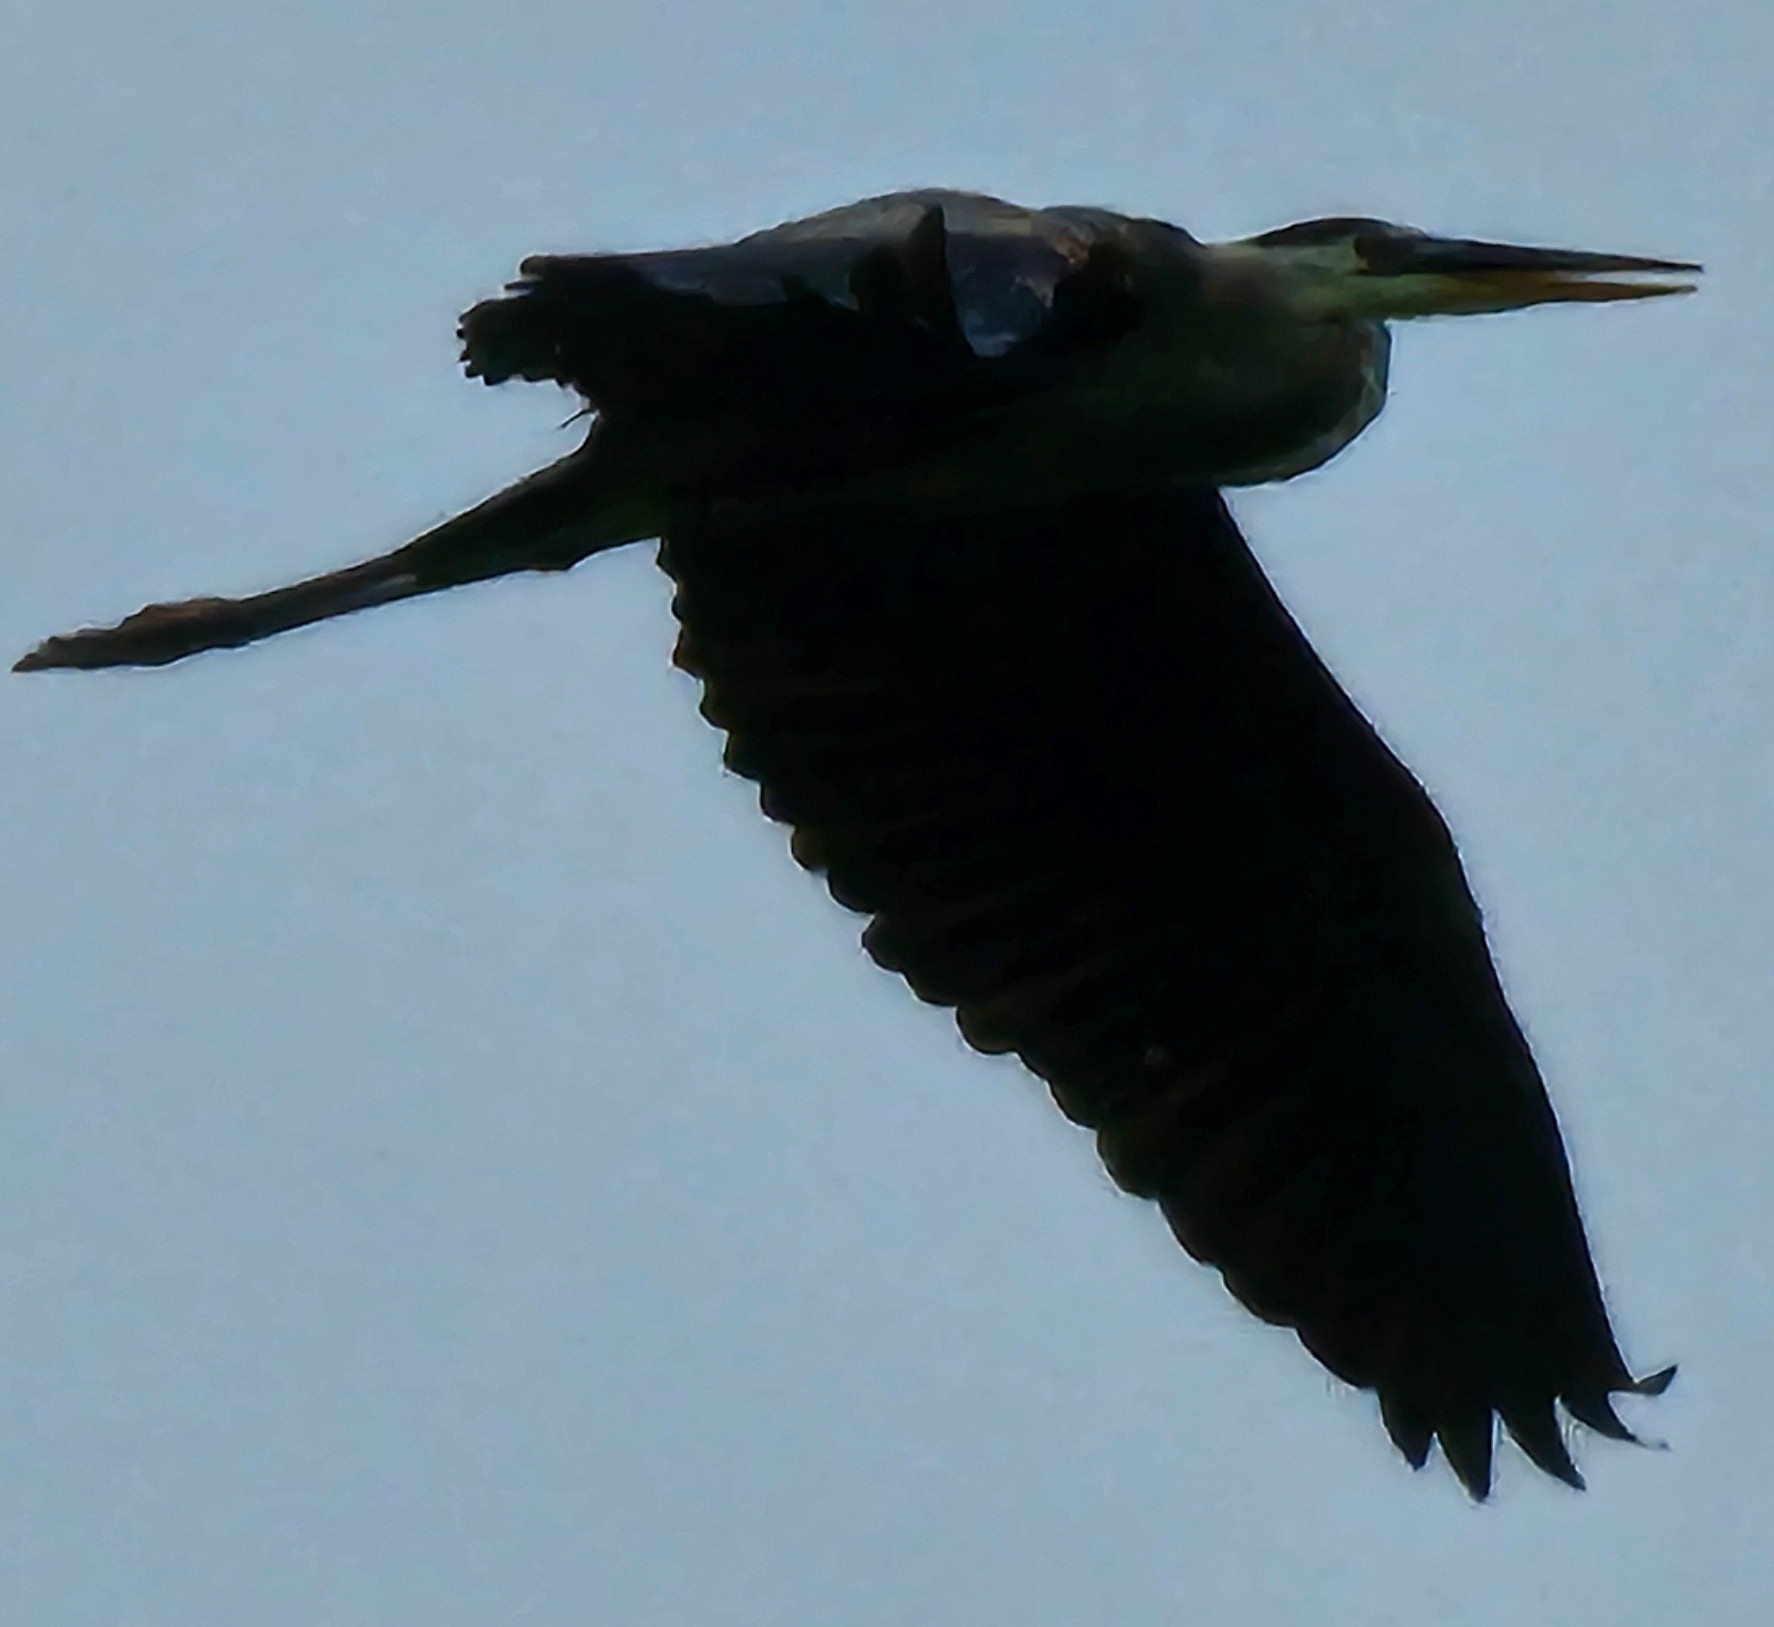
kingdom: Animalia
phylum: Chordata
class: Aves
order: Pelecaniformes
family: Ardeidae
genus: Ardea
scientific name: Ardea herodias
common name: Great blue heron
